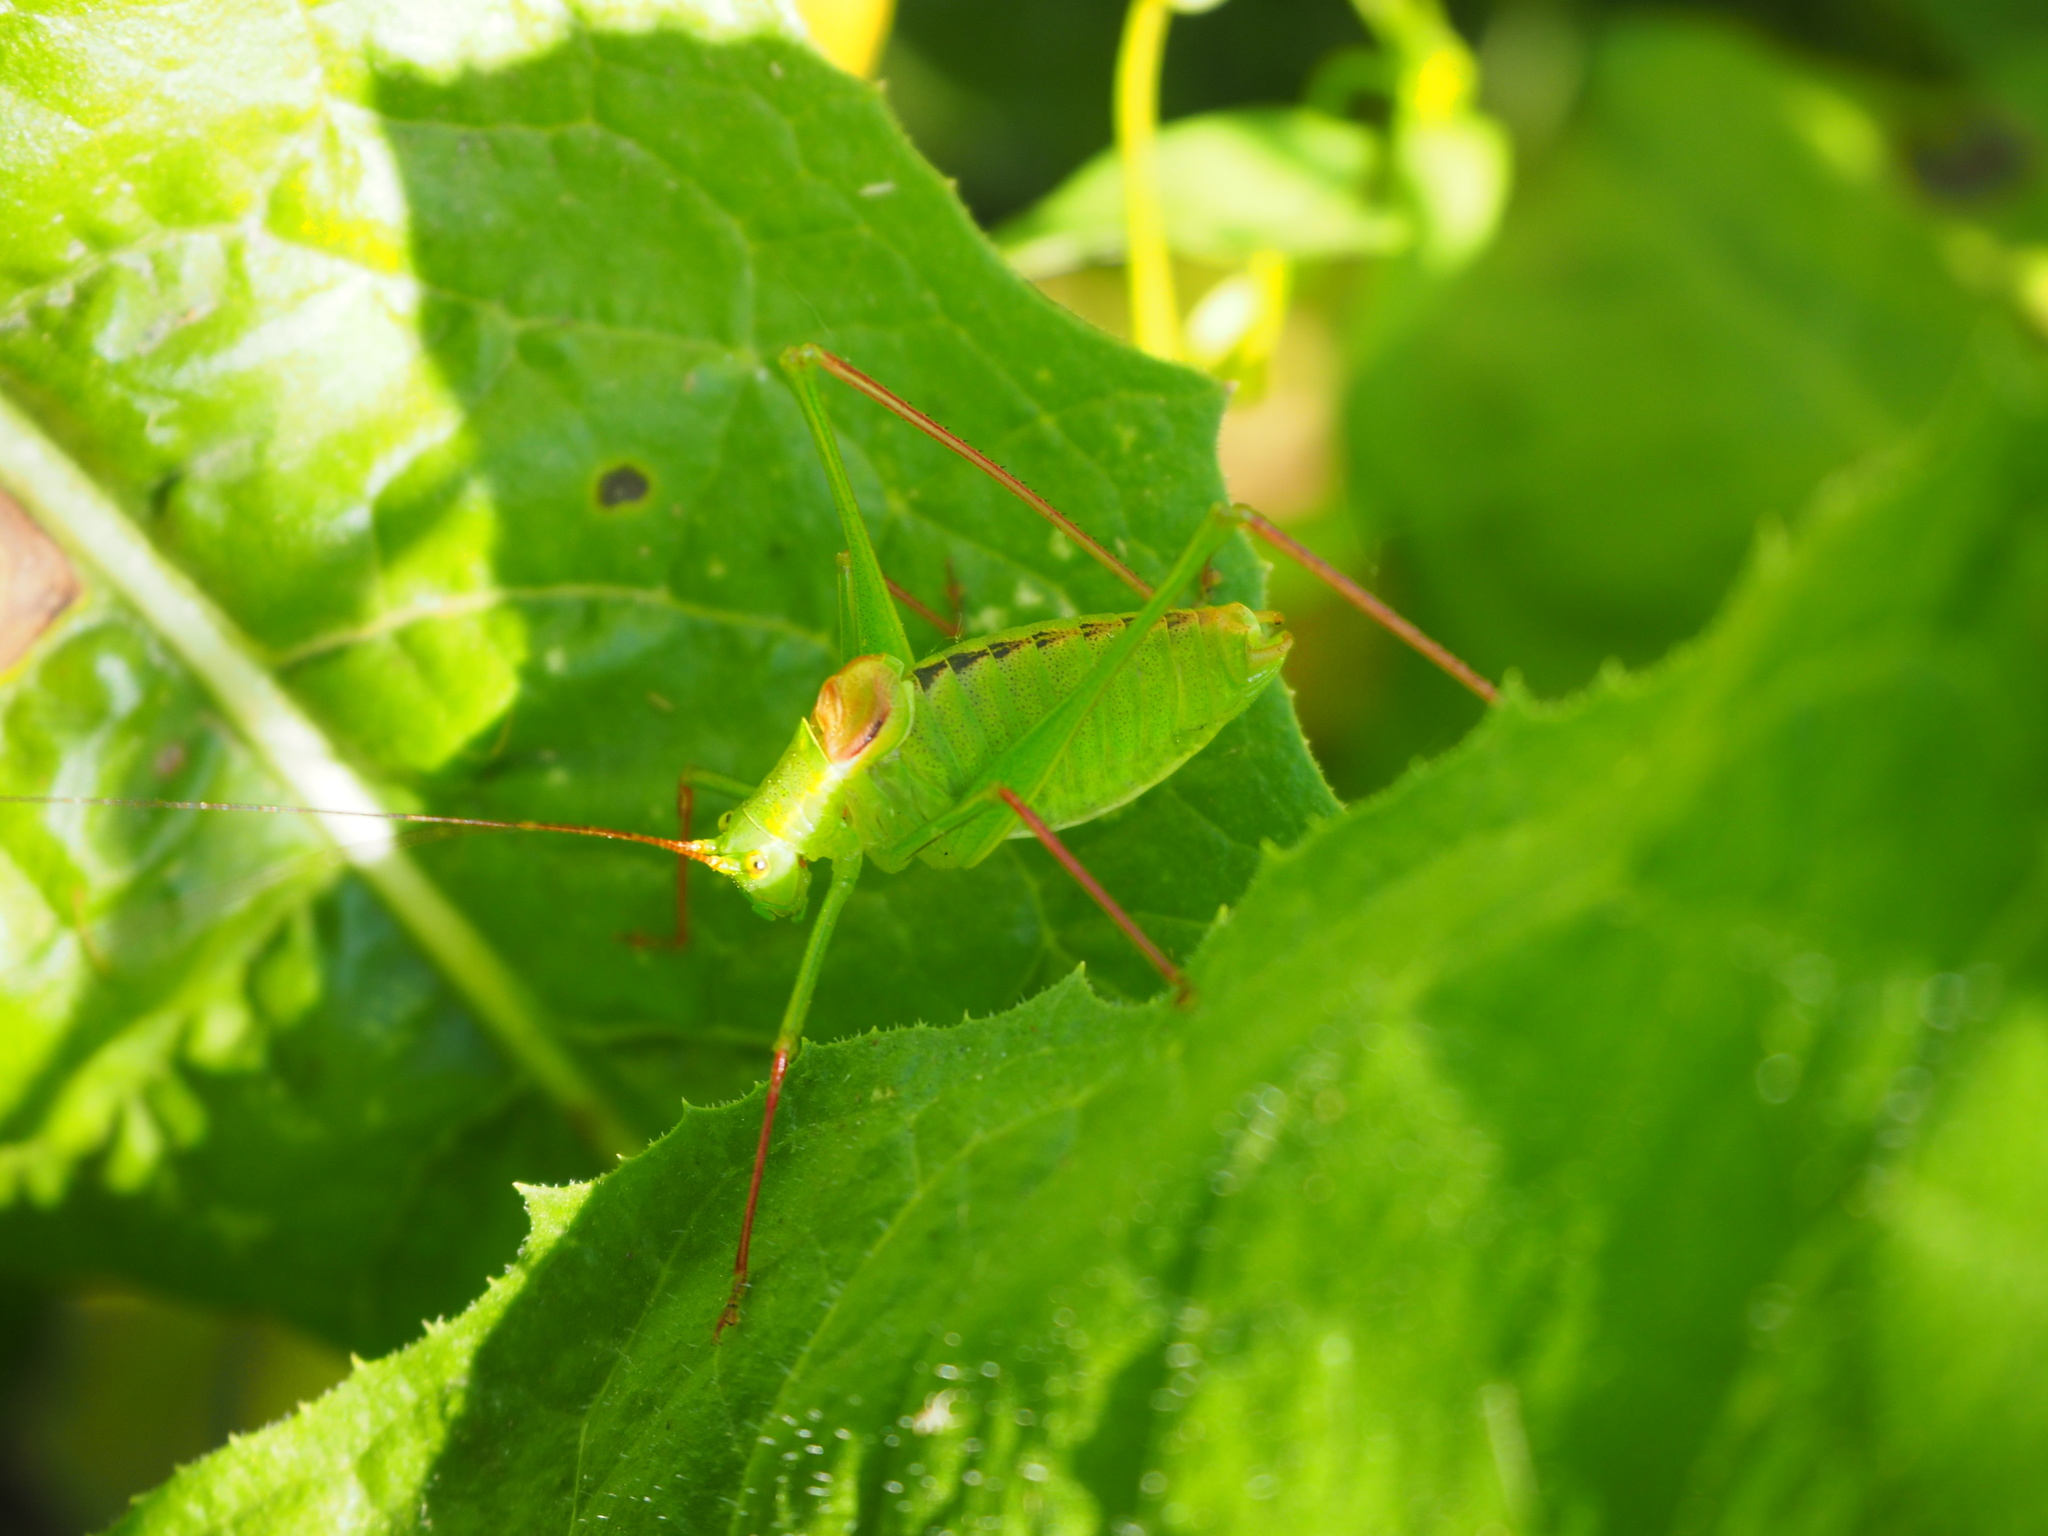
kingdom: Animalia
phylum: Arthropoda
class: Insecta
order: Orthoptera
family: Tettigoniidae
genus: Leptophyes
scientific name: Leptophyes laticauda
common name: Long-tailed speckled bush-cricket
